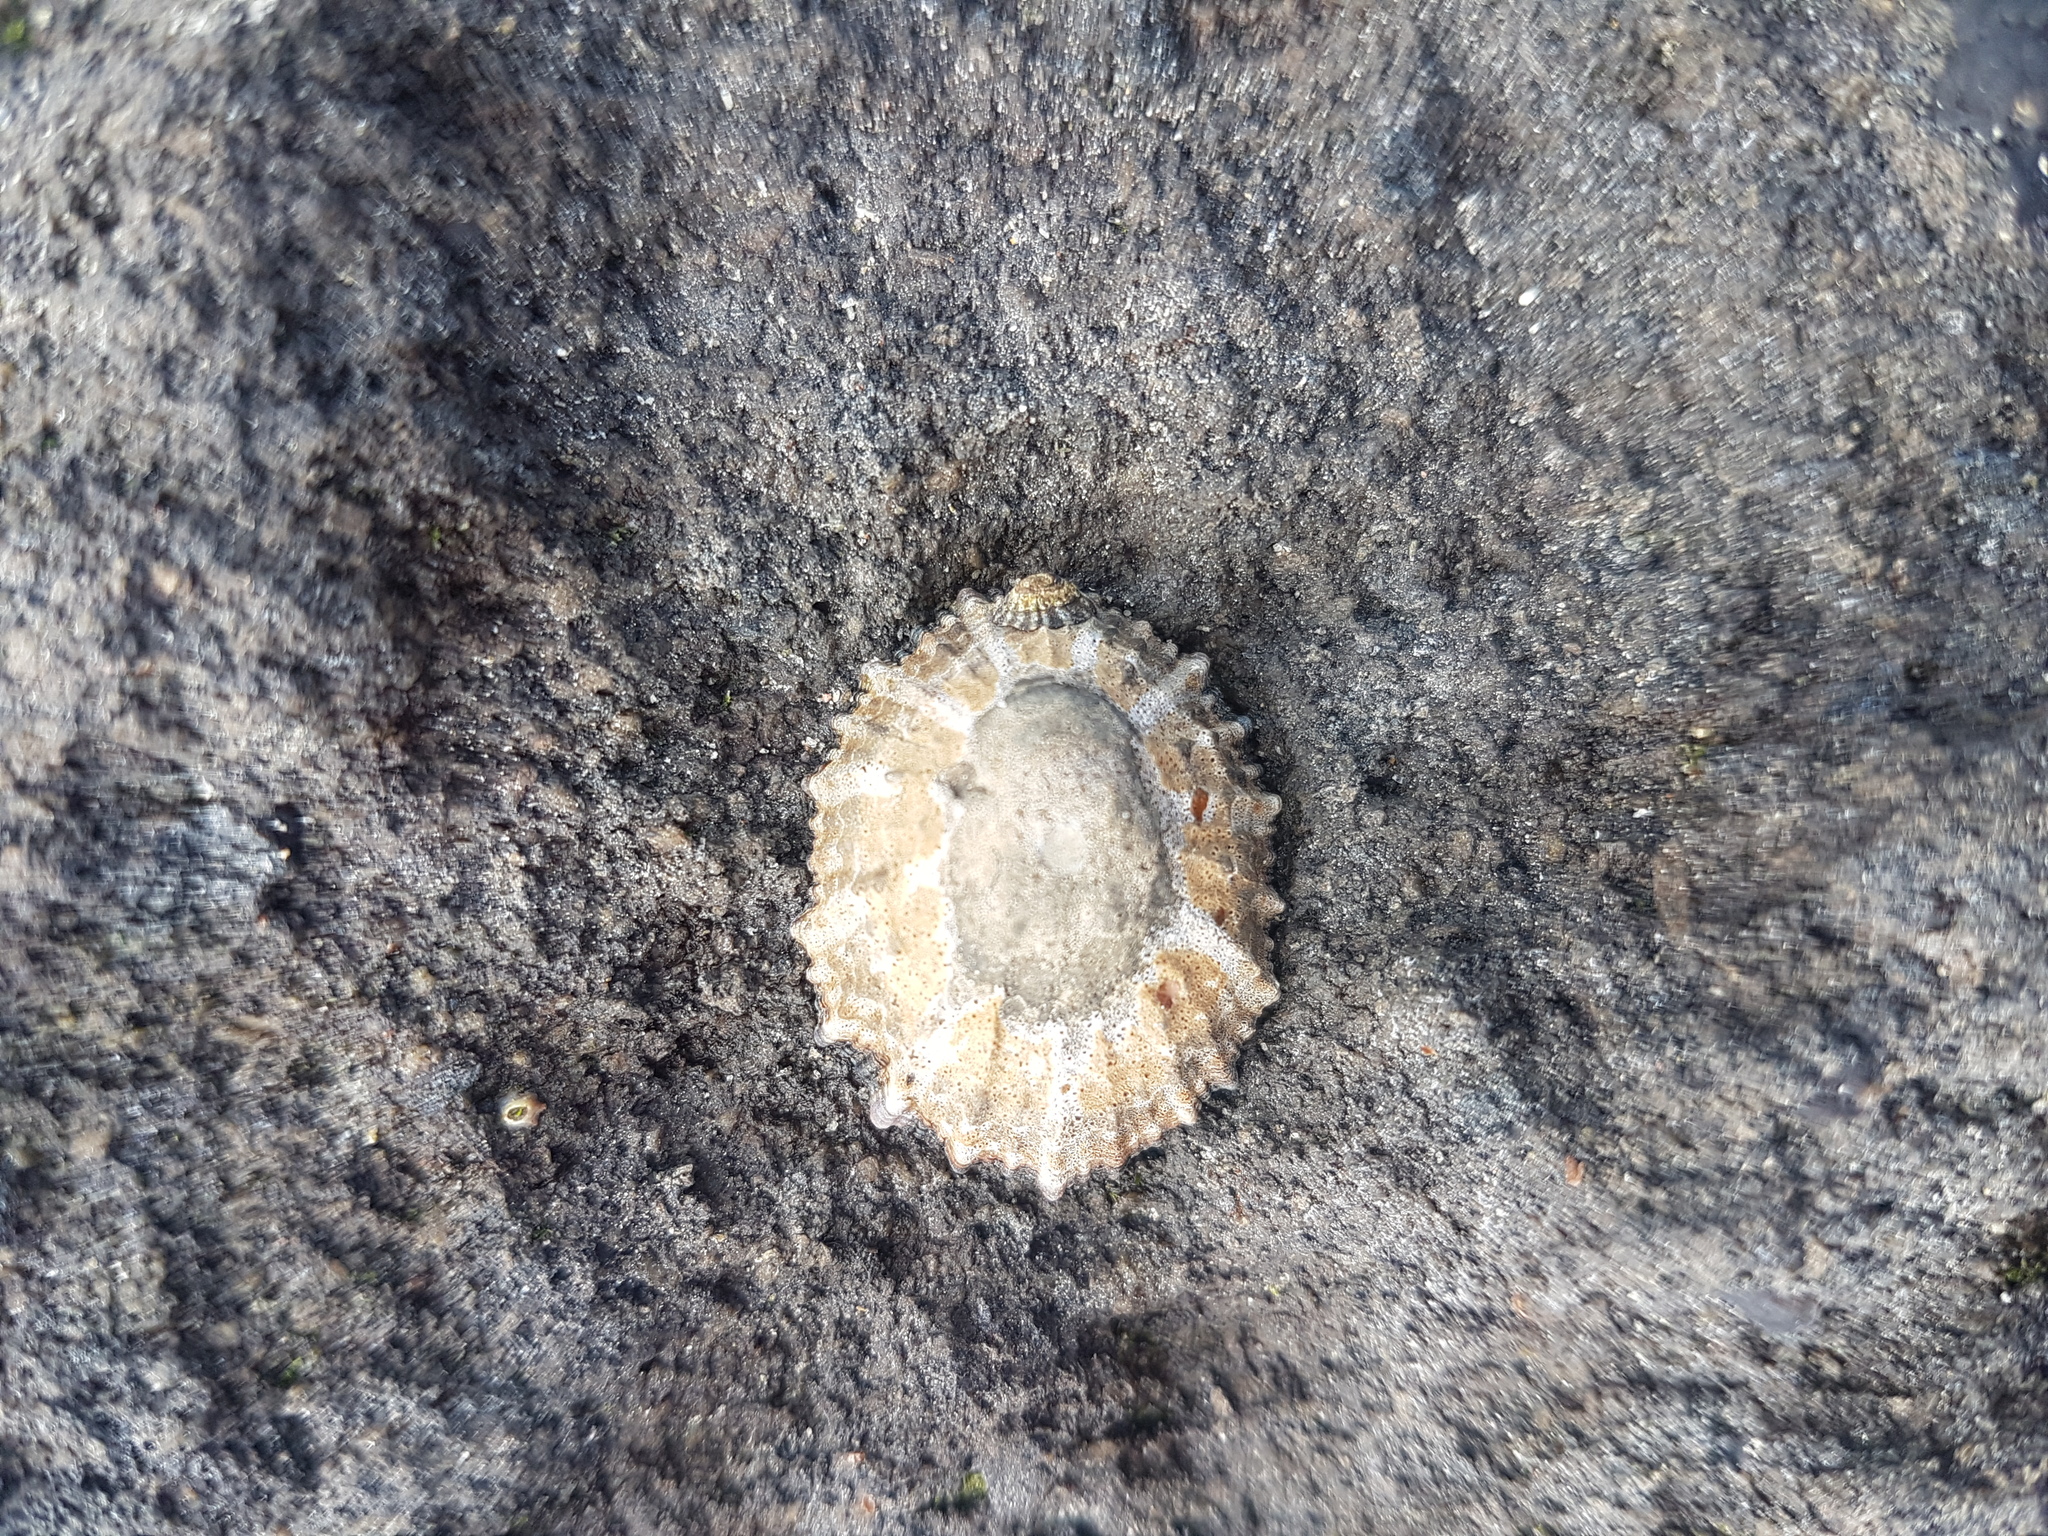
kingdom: Animalia
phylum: Mollusca
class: Gastropoda
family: Nacellidae
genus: Cellana
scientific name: Cellana ornata
